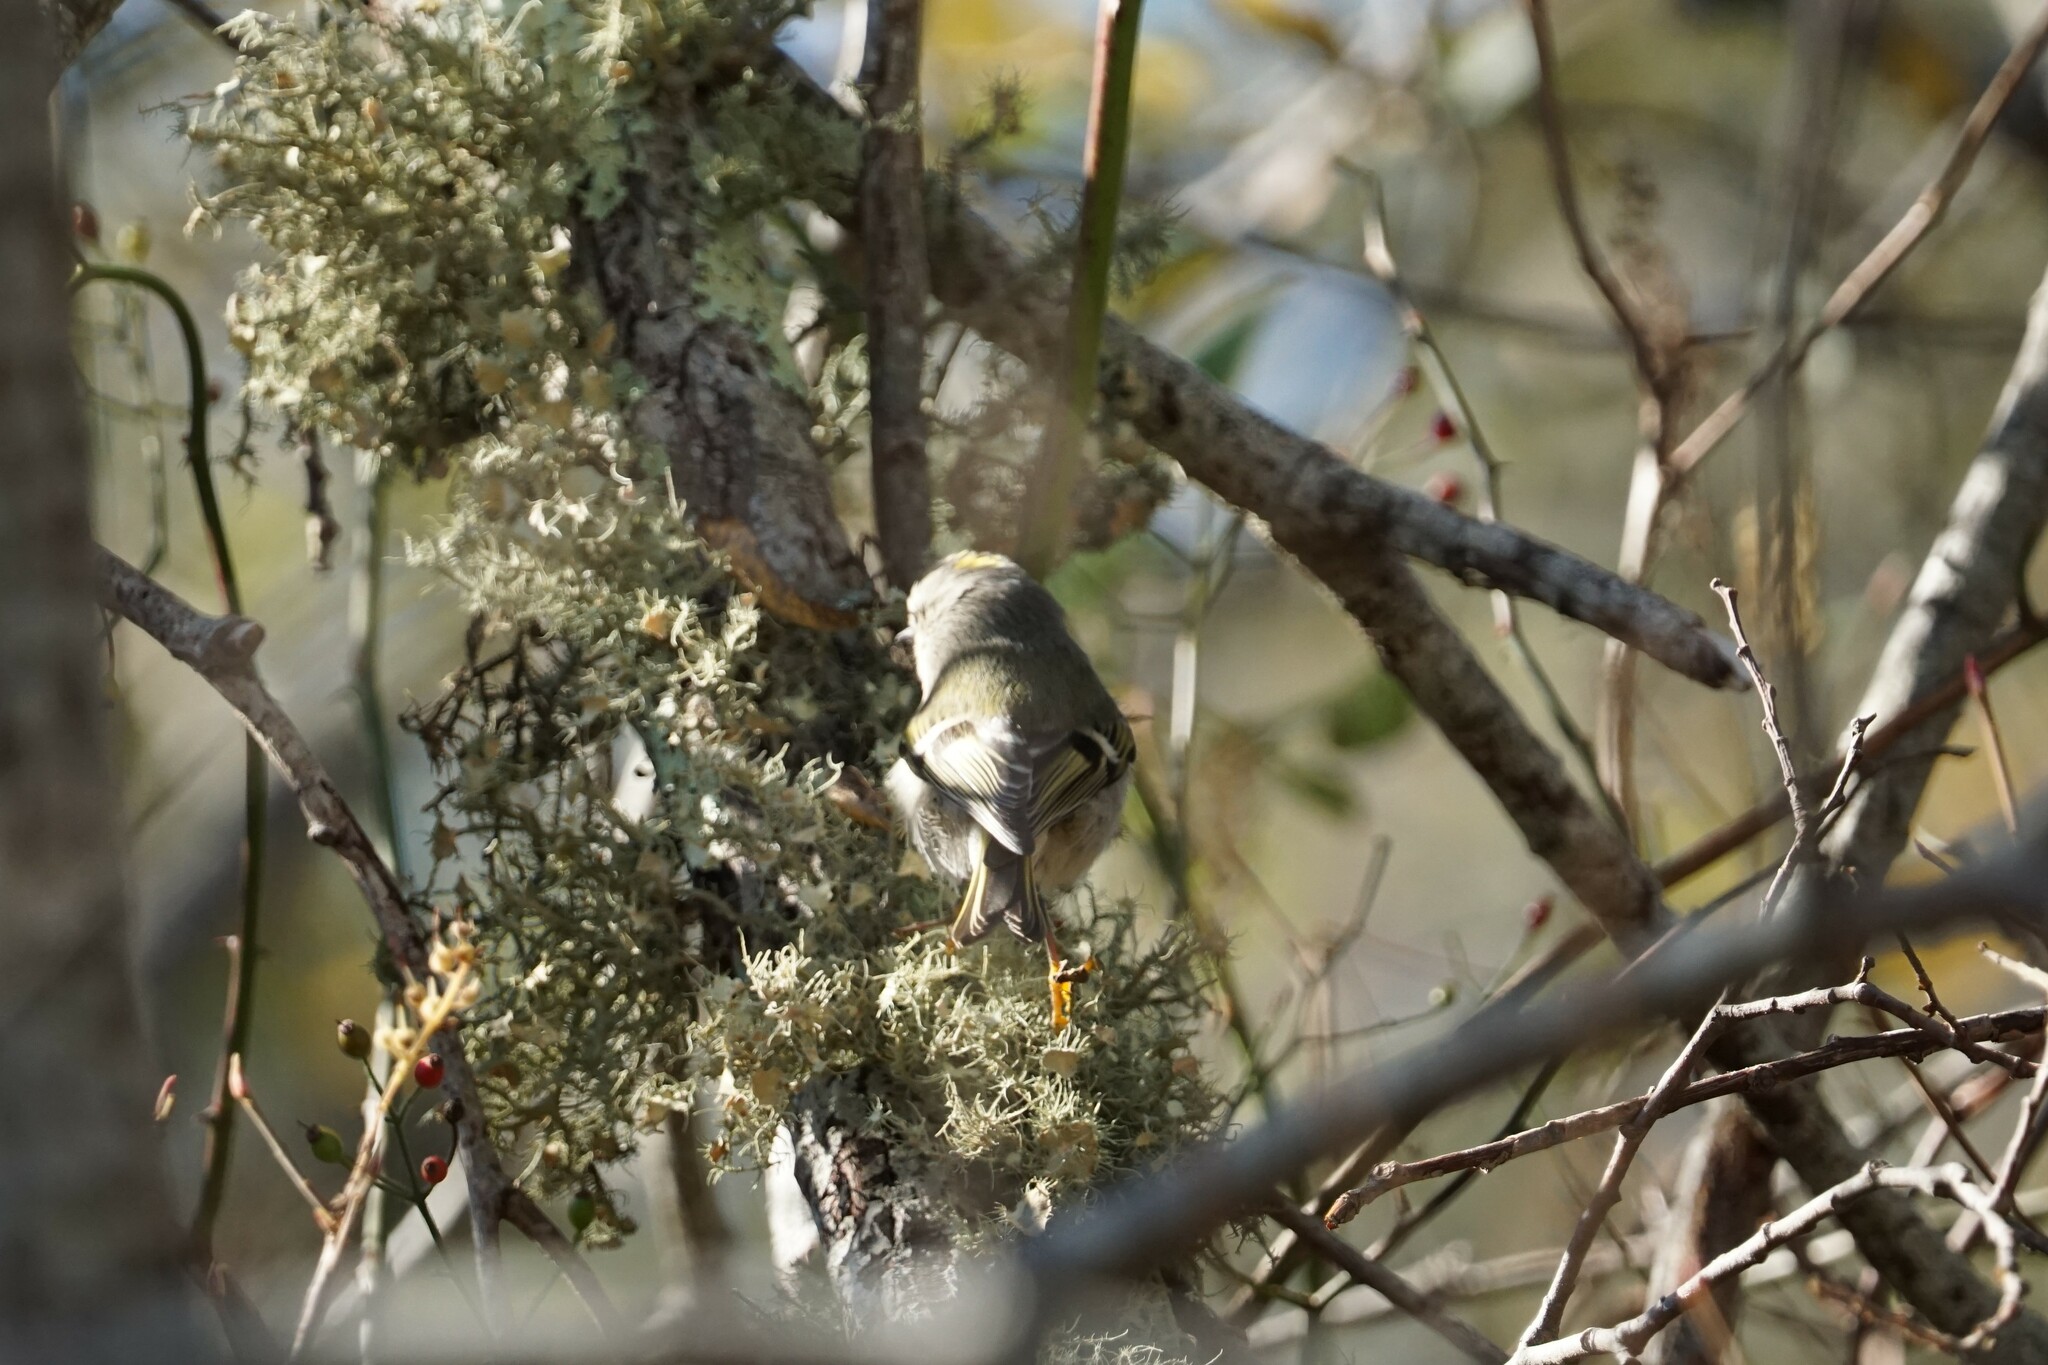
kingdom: Animalia
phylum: Chordata
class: Aves
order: Passeriformes
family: Regulidae
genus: Regulus
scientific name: Regulus satrapa
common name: Golden-crowned kinglet
